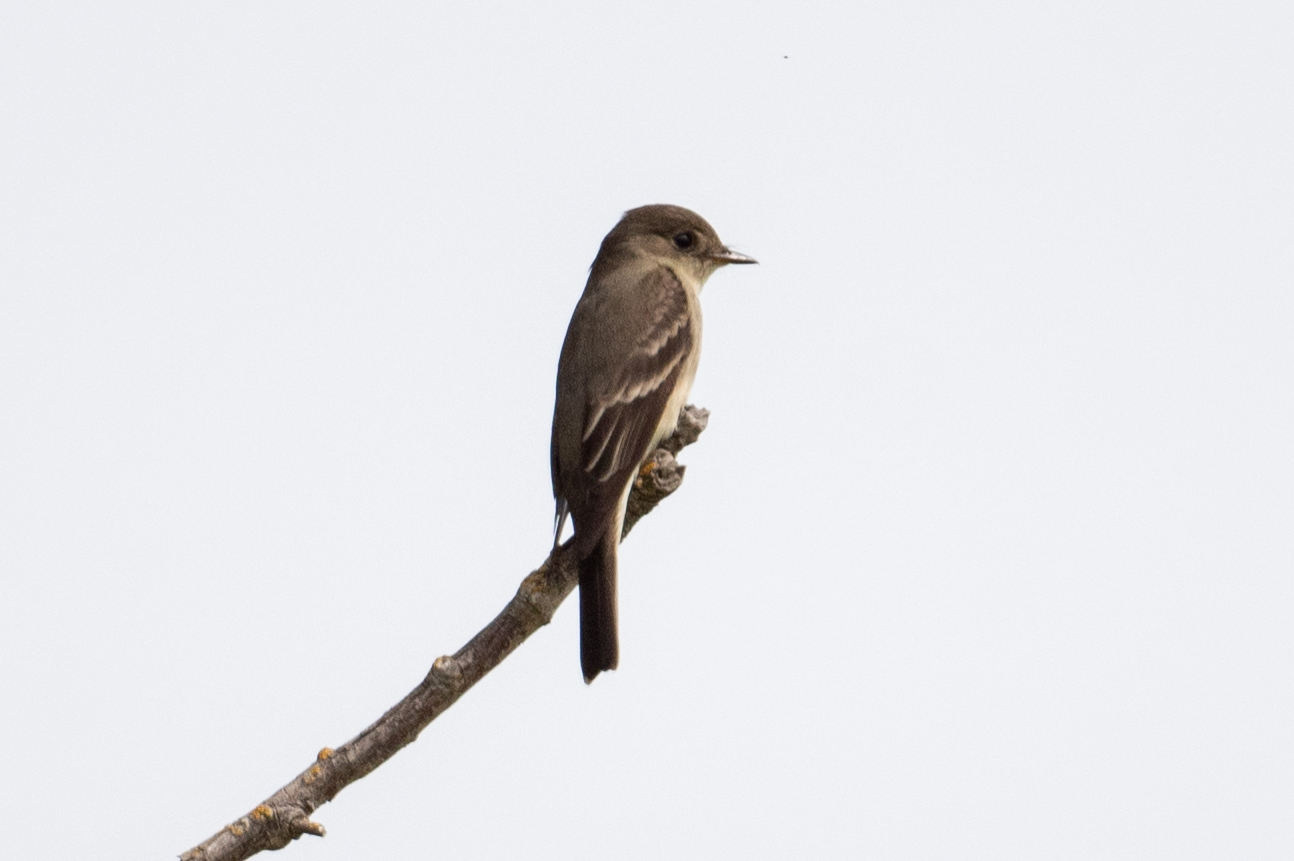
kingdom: Animalia
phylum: Chordata
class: Aves
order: Passeriformes
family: Tyrannidae
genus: Contopus
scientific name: Contopus sordidulus
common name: Western wood-pewee
